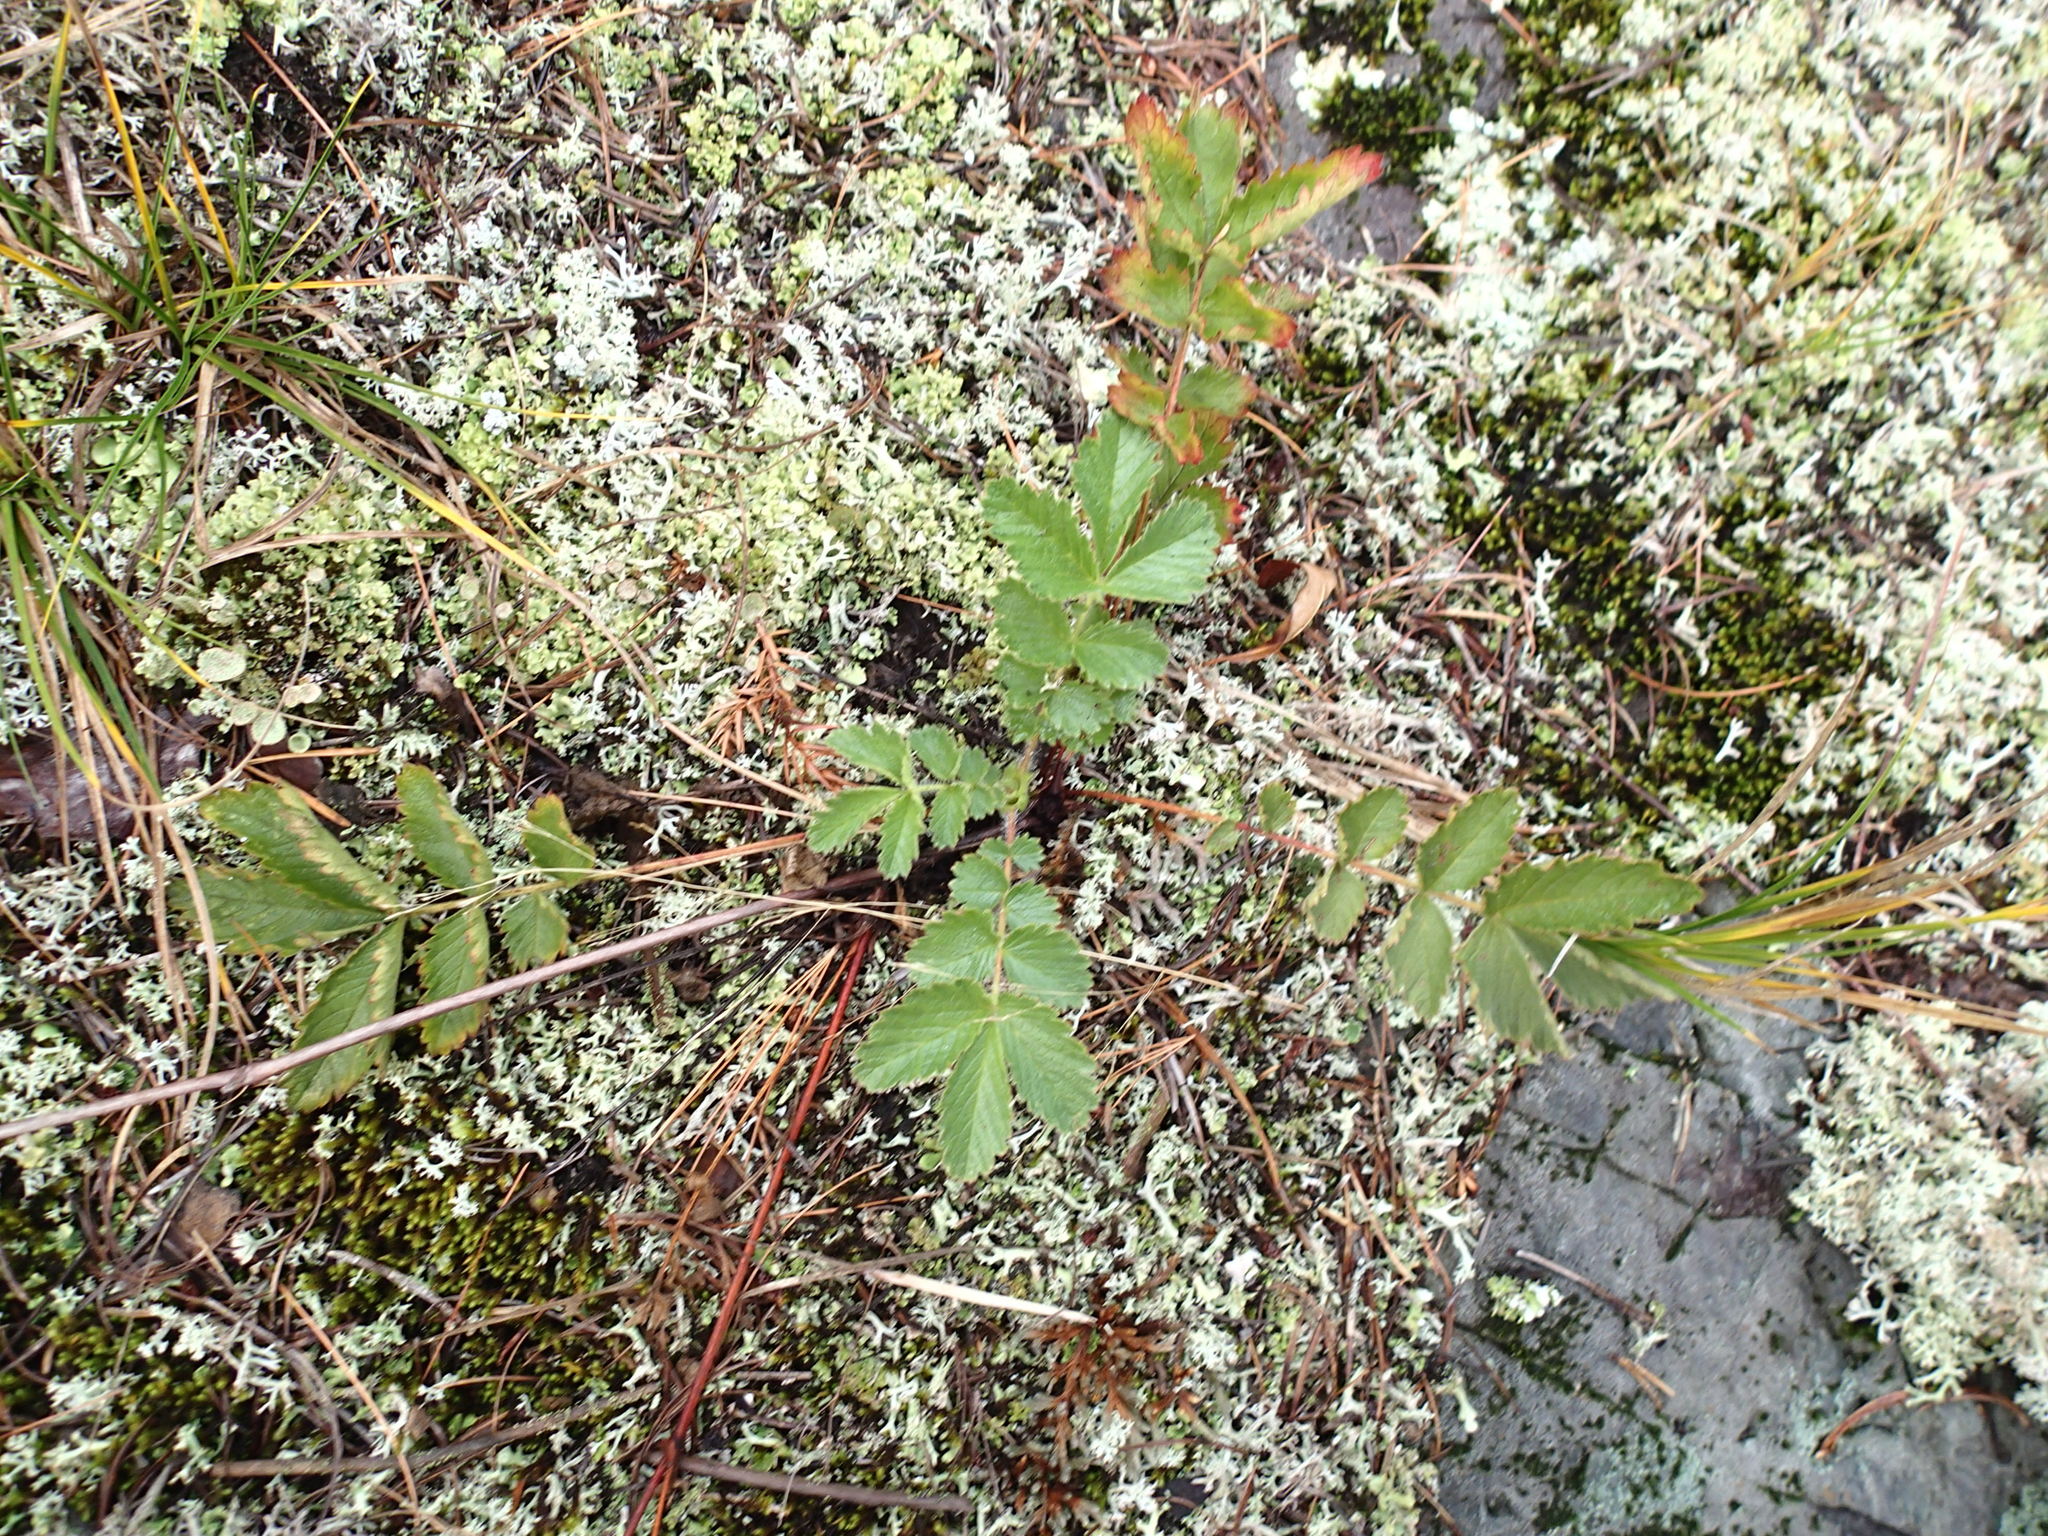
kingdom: Plantae
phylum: Tracheophyta
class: Magnoliopsida
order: Rosales
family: Rosaceae
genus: Drymocallis
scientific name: Drymocallis arguta
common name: Tall cinquefoil
